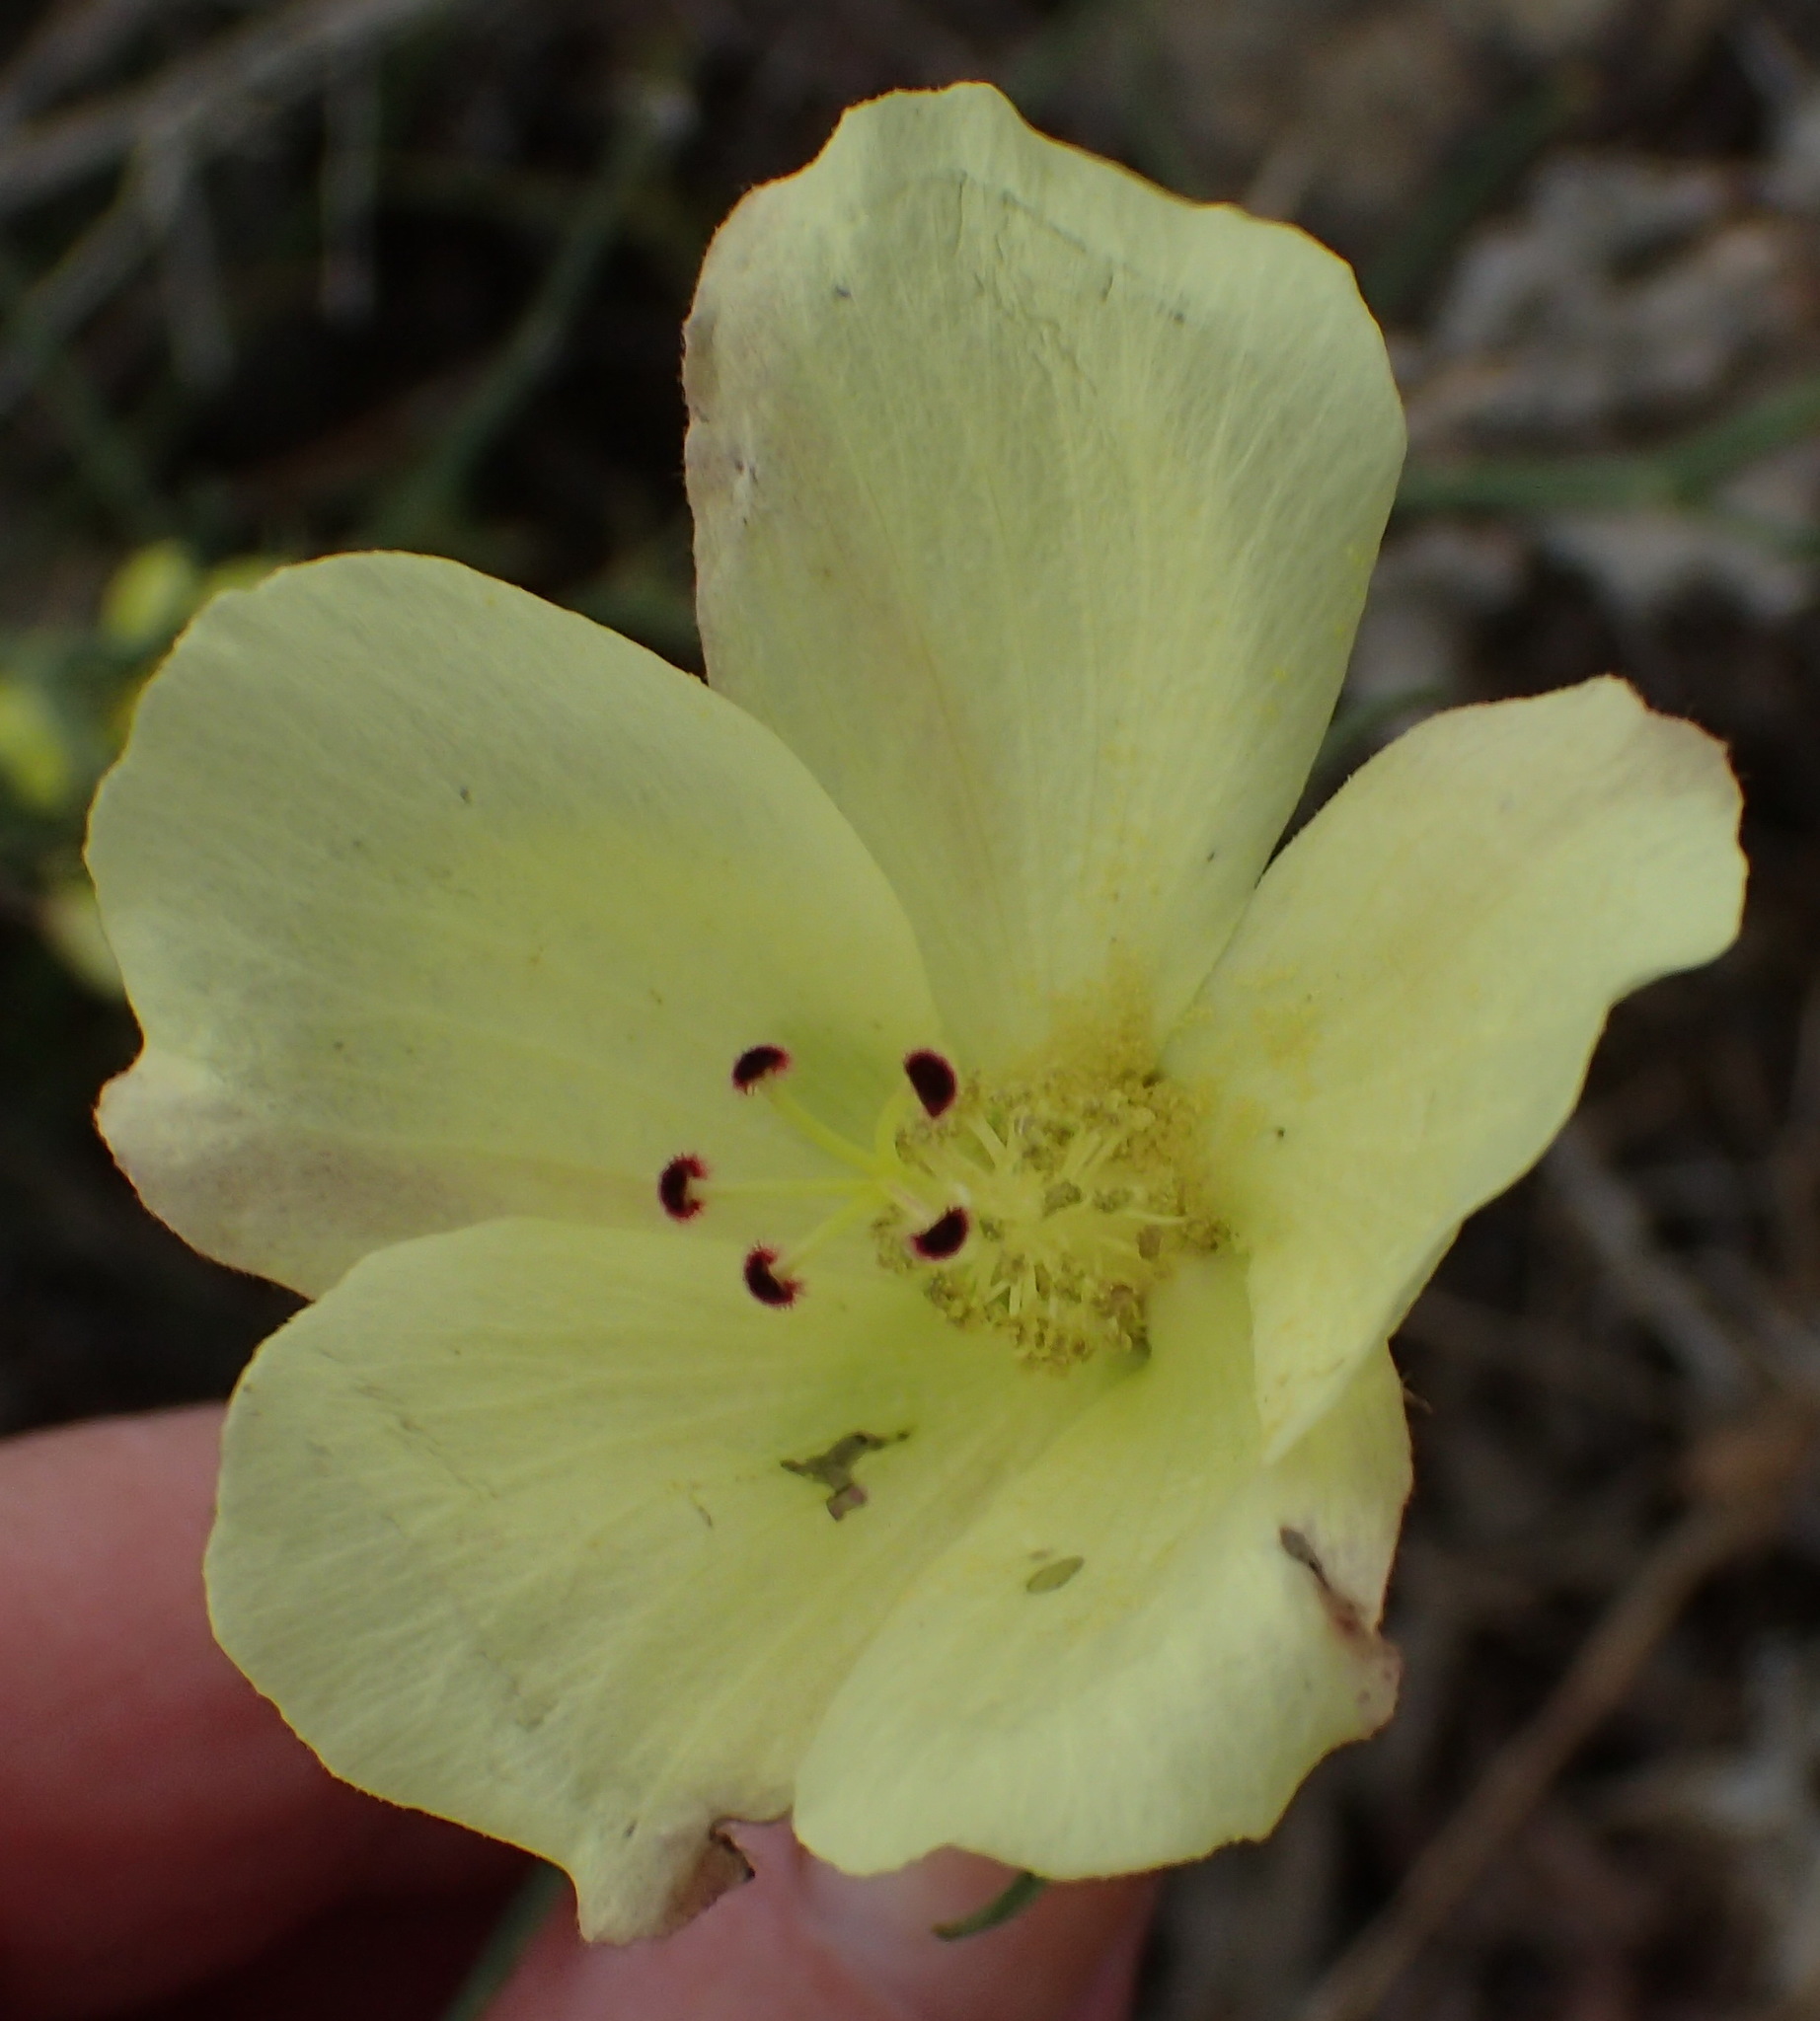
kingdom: Plantae
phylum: Tracheophyta
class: Magnoliopsida
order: Malvales
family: Malvaceae
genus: Hibiscus
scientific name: Hibiscus pusillus
